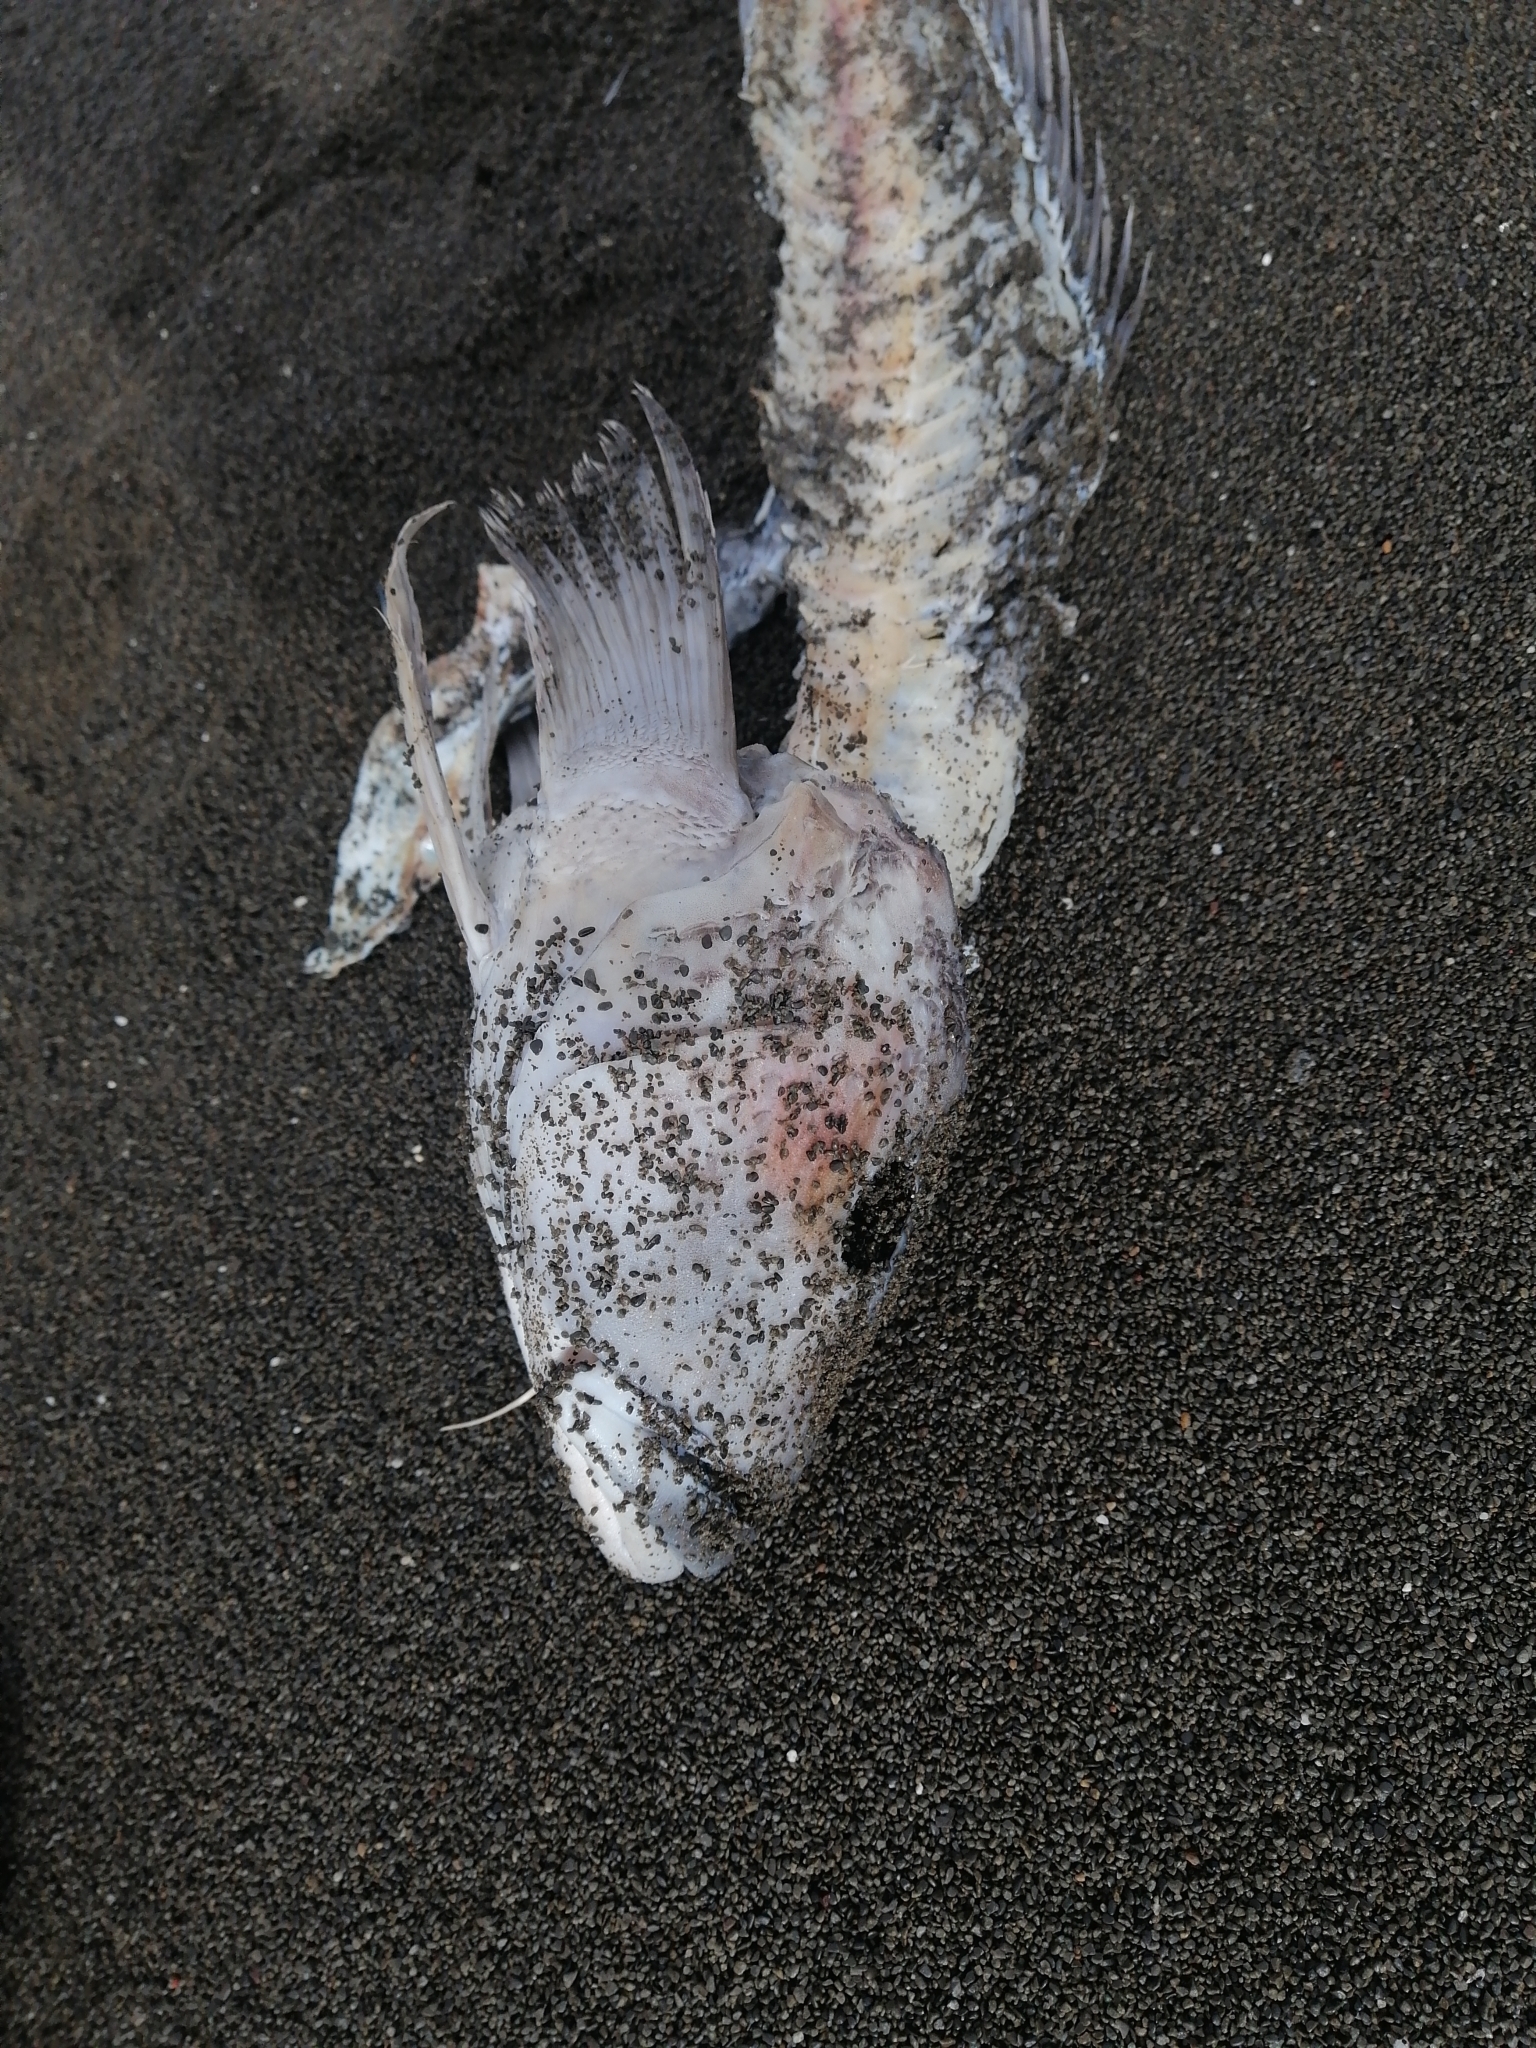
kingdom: Animalia
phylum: Chordata
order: Perciformes
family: Pinguipedidae
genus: Parapercis
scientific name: Parapercis colias
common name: Blue cod
